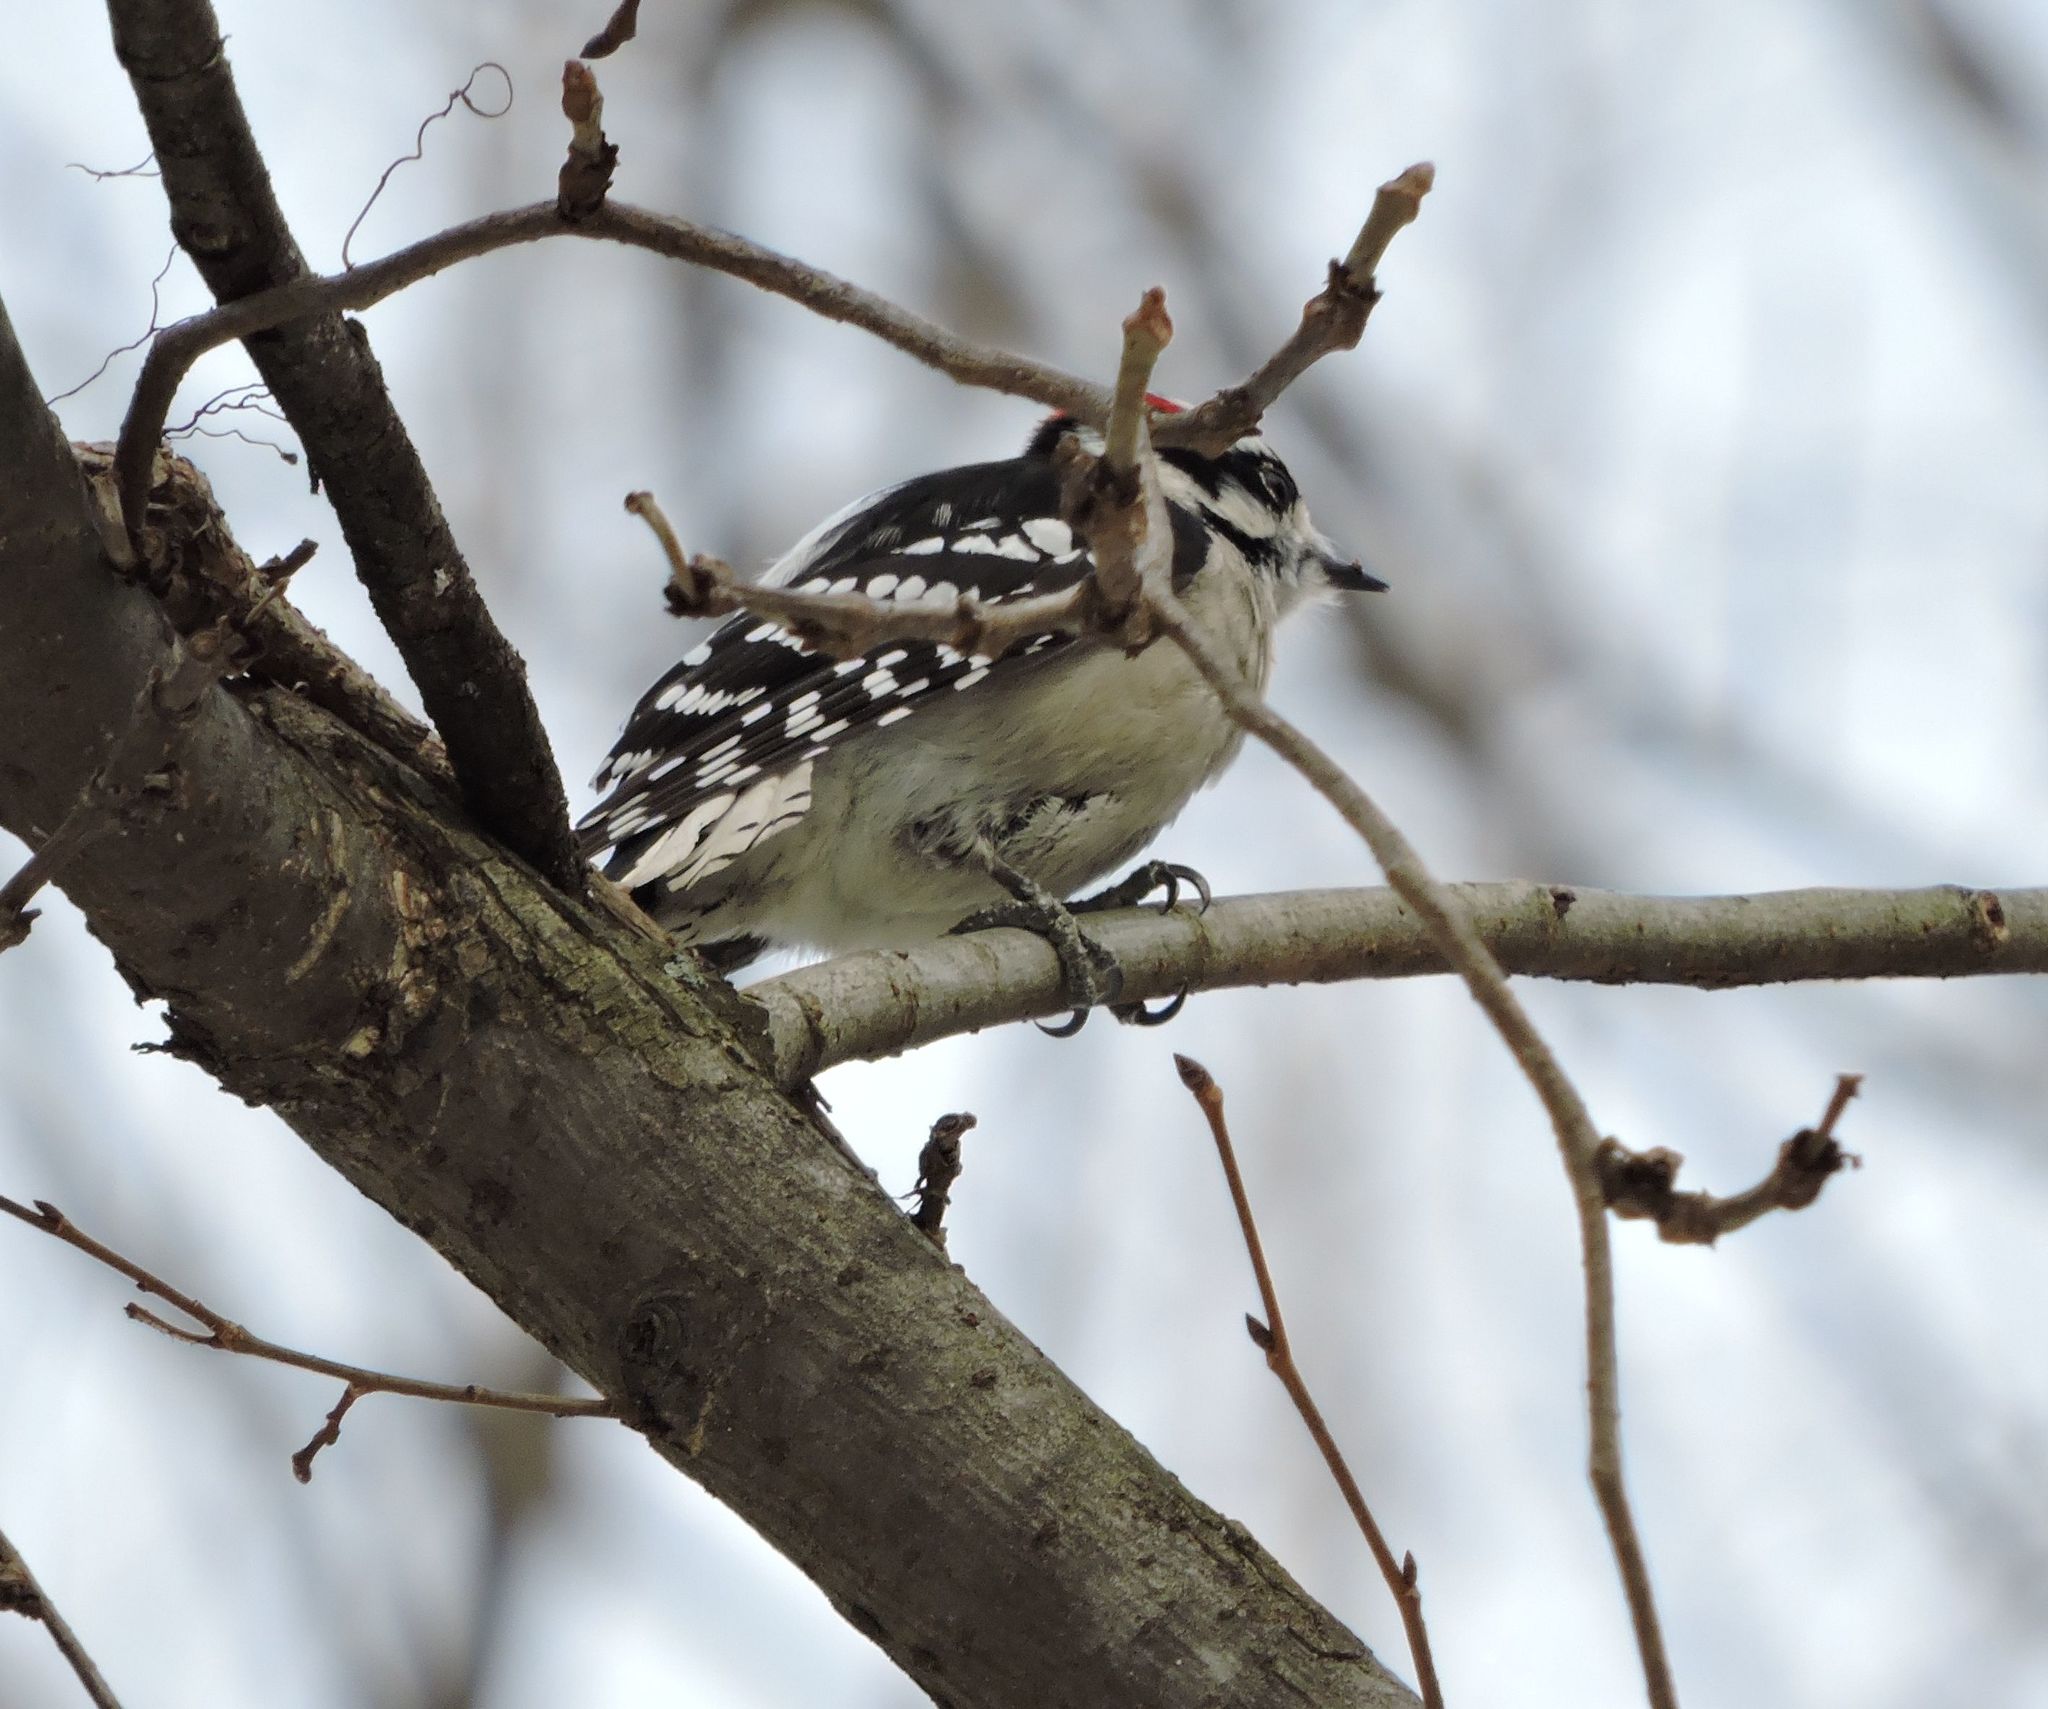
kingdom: Animalia
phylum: Chordata
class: Aves
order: Piciformes
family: Picidae
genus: Dryobates
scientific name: Dryobates pubescens
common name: Downy woodpecker
